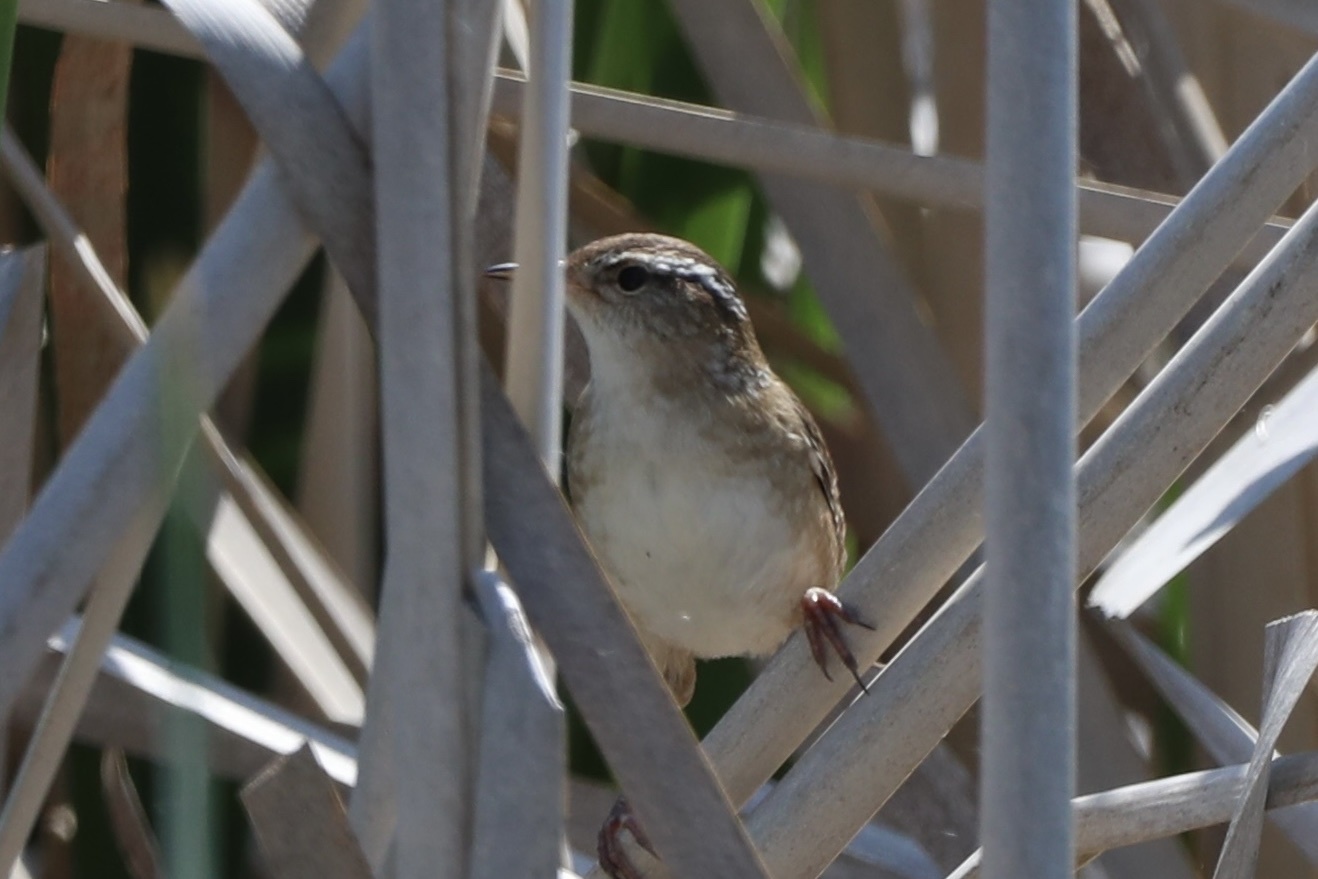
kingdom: Animalia
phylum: Chordata
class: Aves
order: Passeriformes
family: Troglodytidae
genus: Cistothorus
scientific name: Cistothorus palustris
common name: Marsh wren
